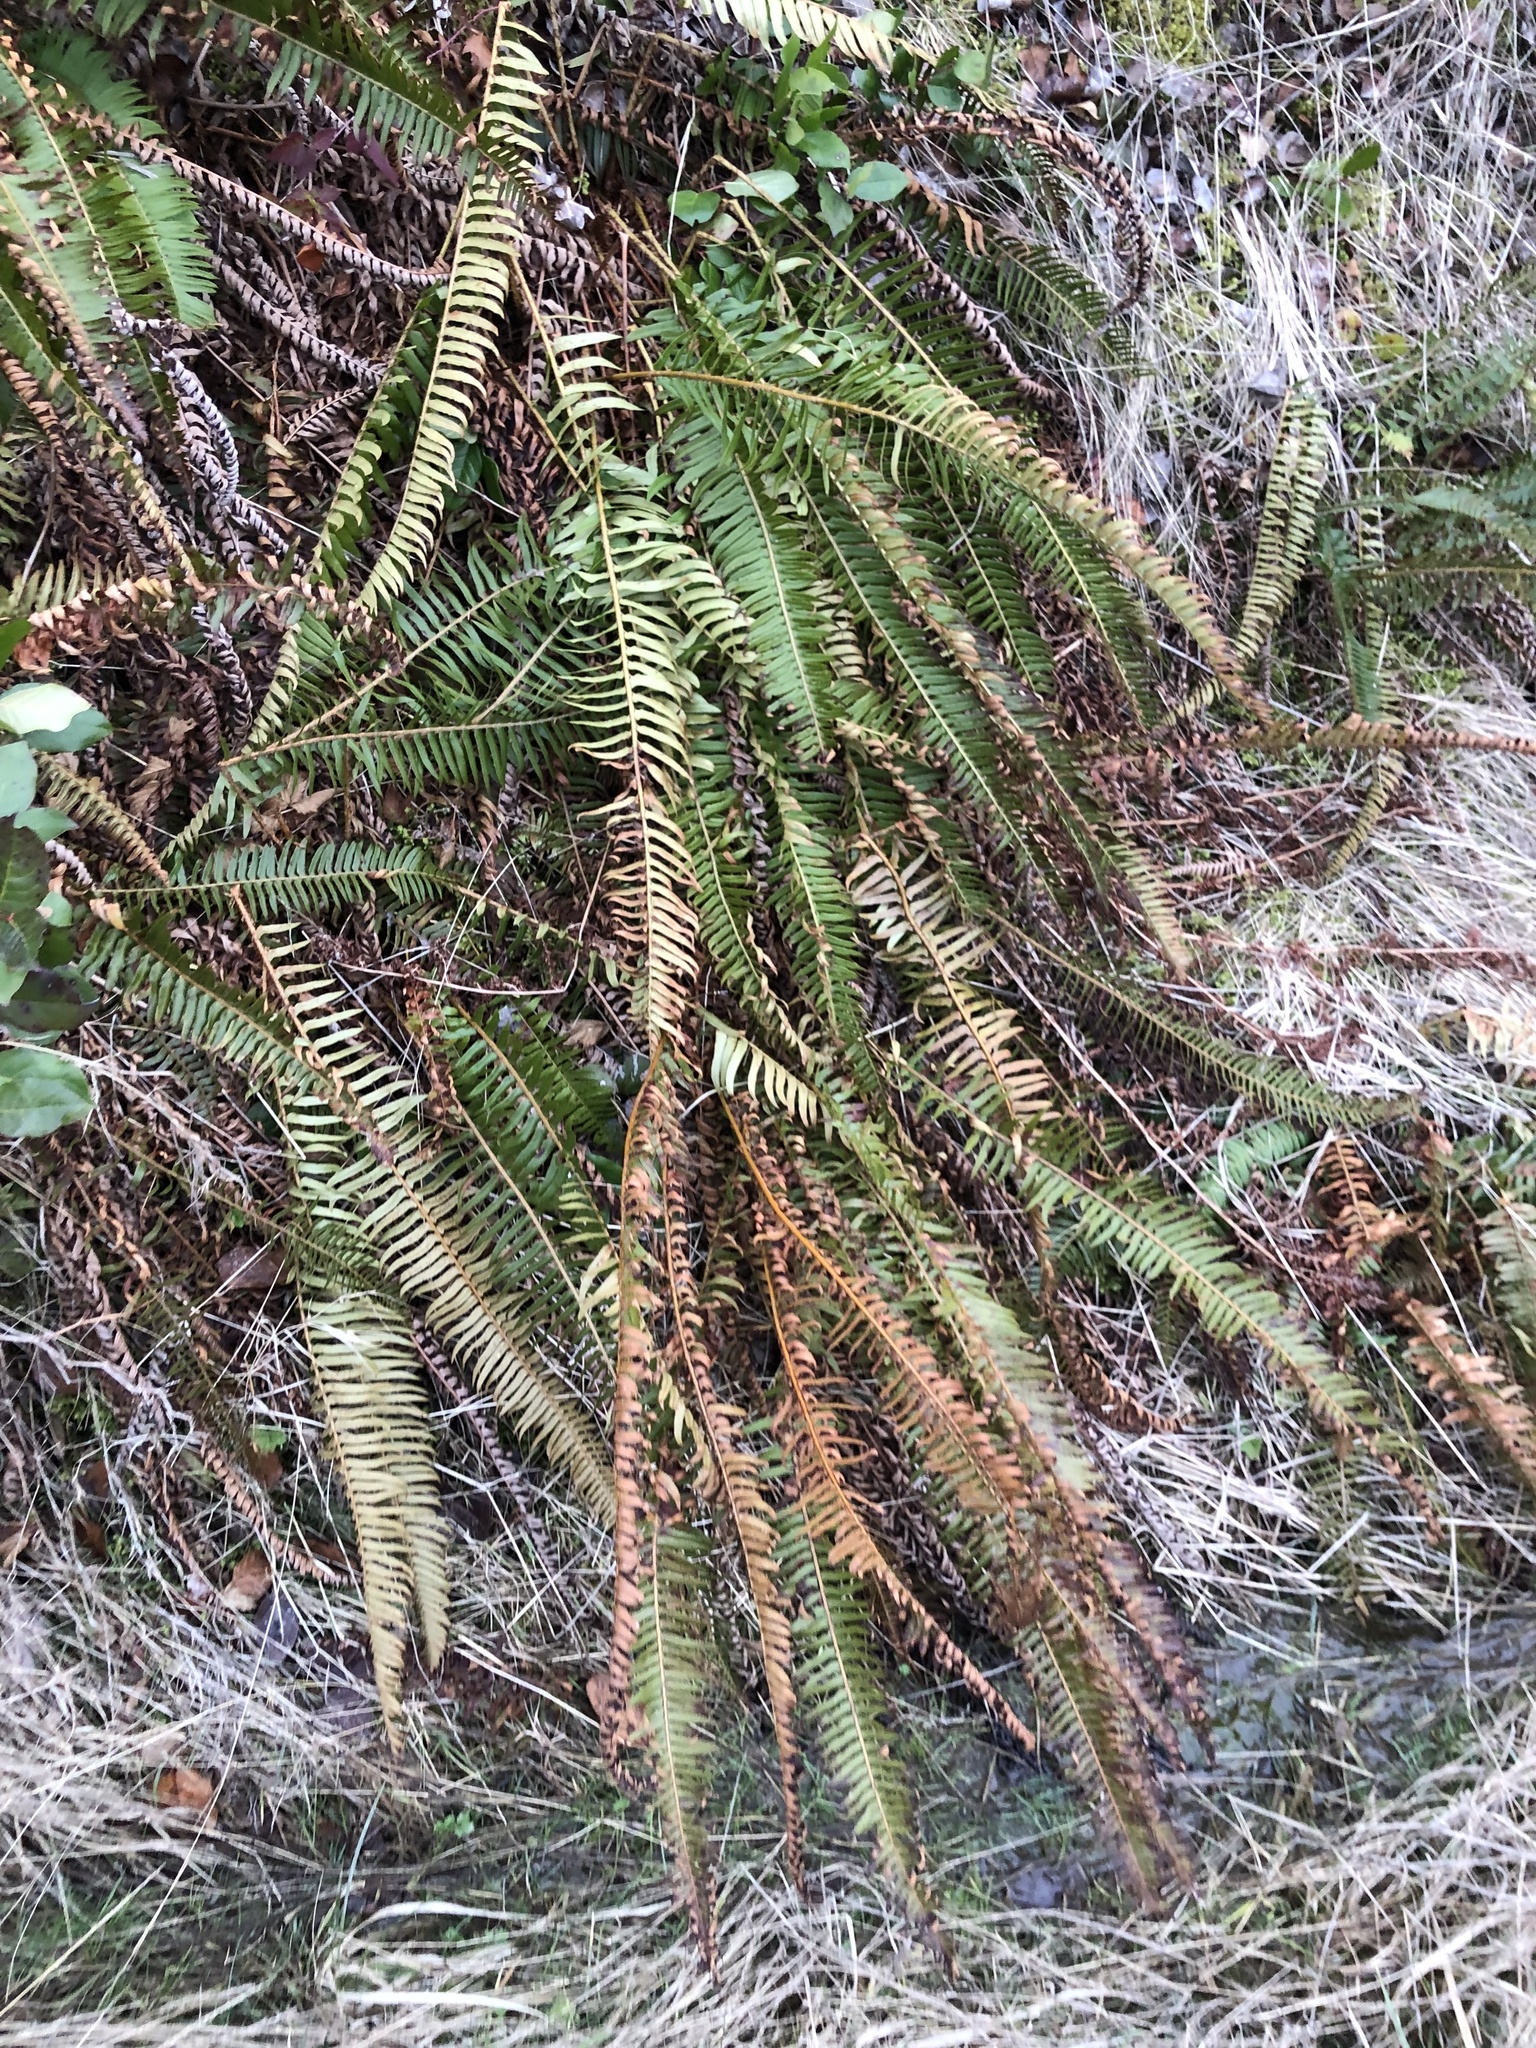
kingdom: Plantae
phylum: Tracheophyta
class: Polypodiopsida
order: Polypodiales
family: Dryopteridaceae
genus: Polystichum
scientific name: Polystichum munitum
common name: Western sword-fern
